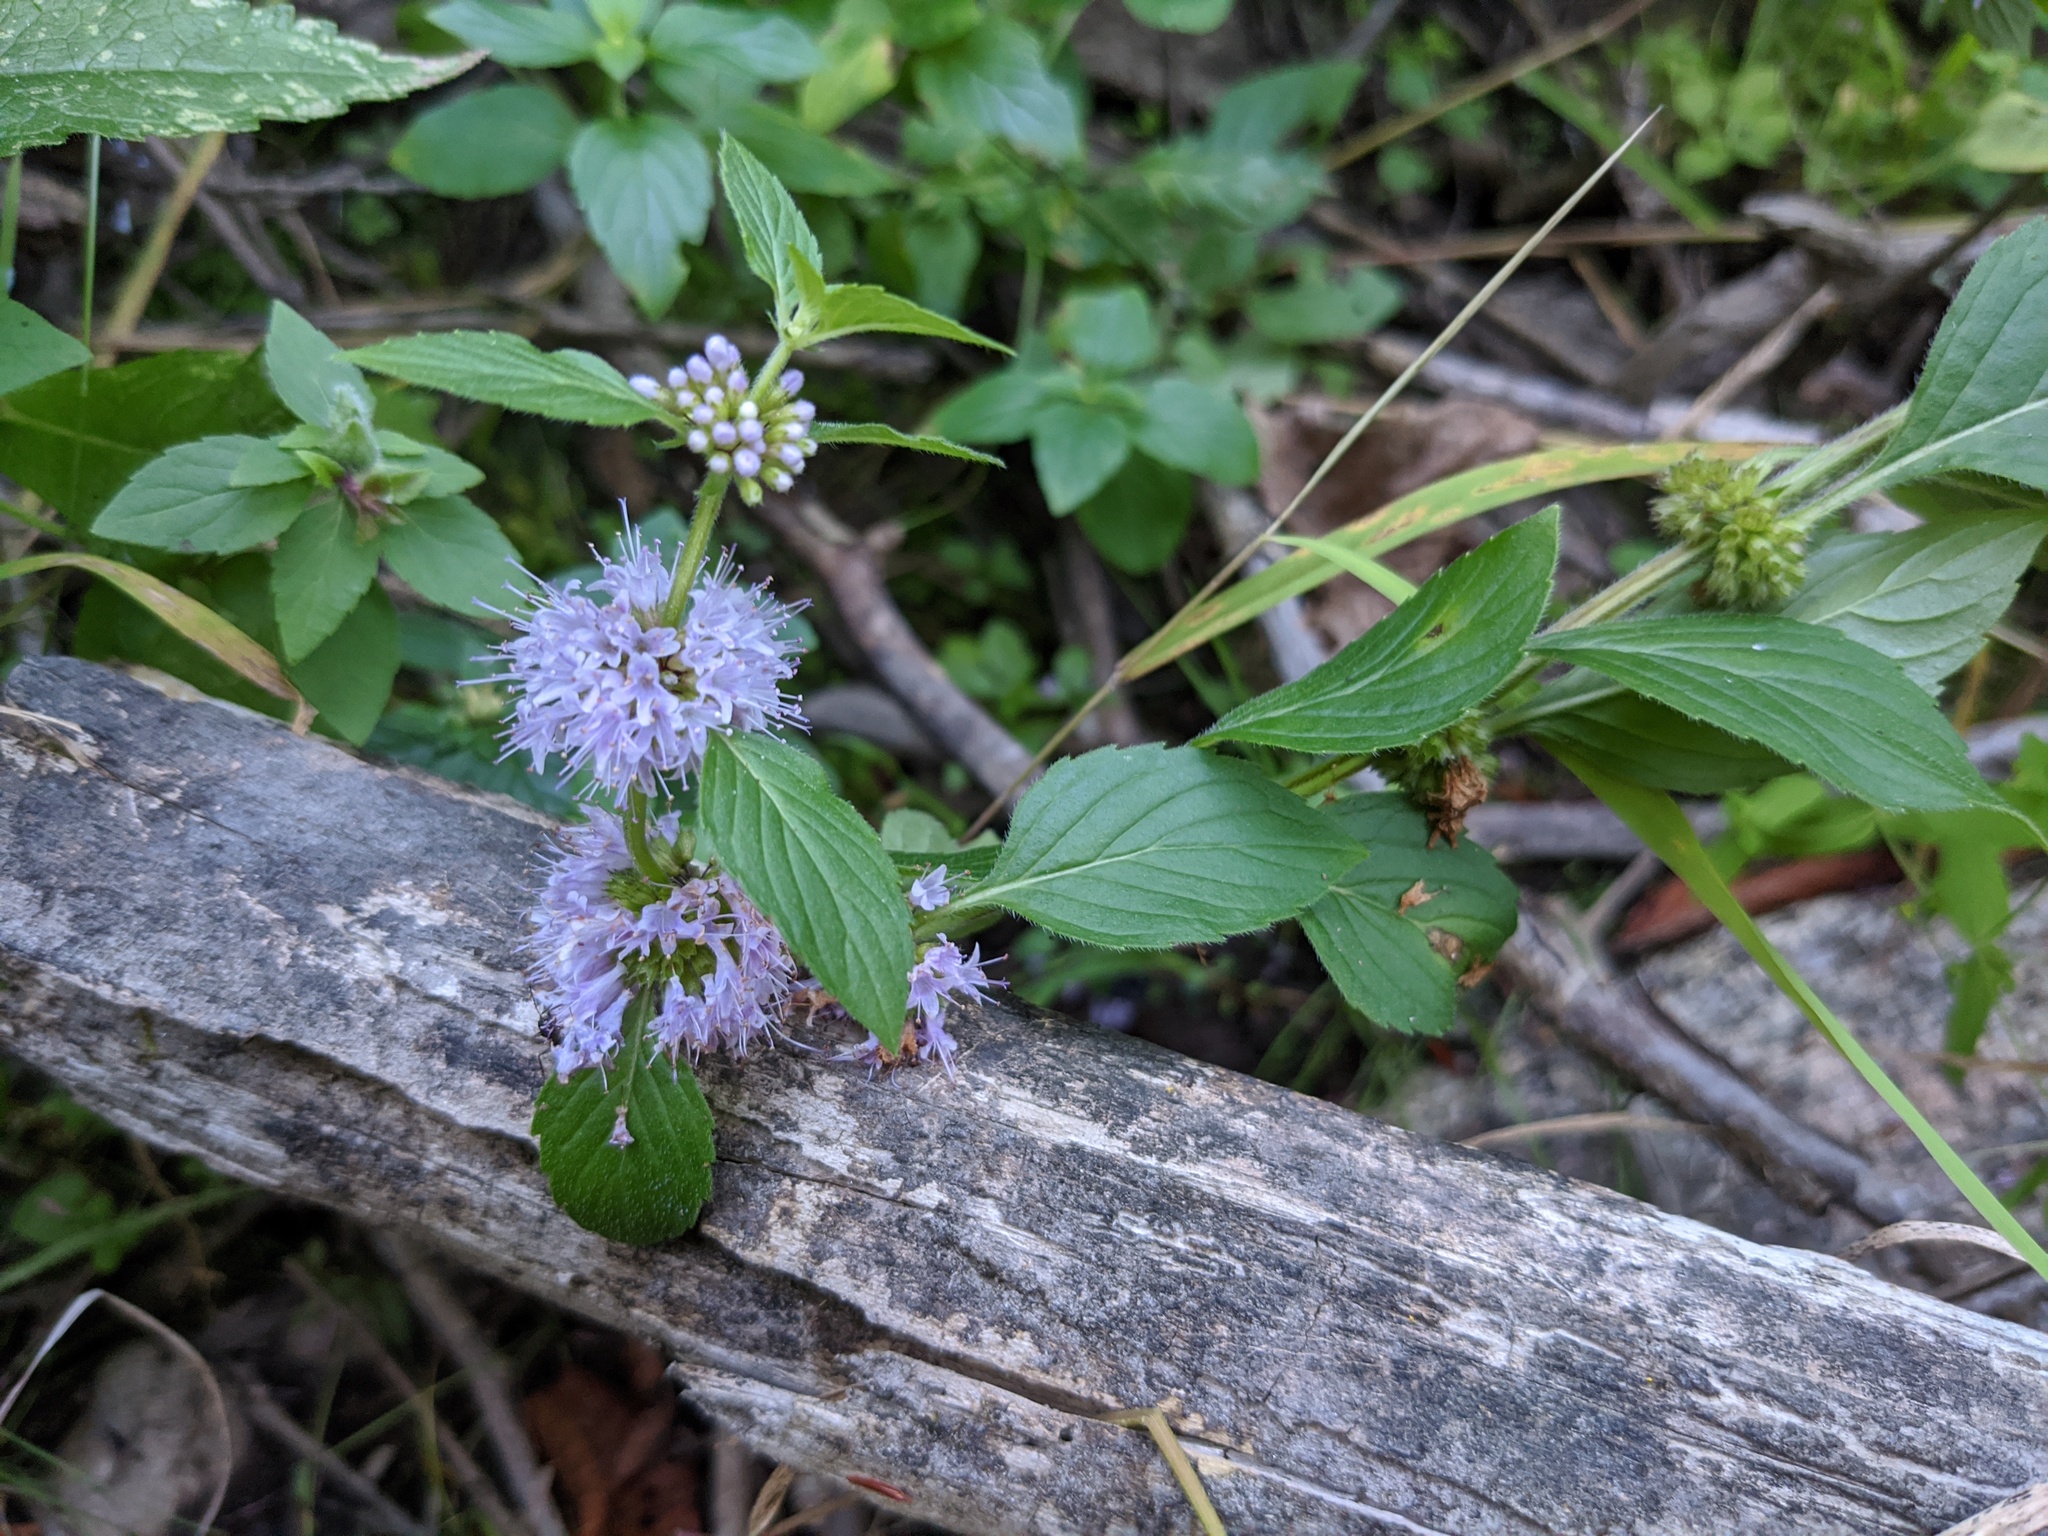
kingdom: Plantae
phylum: Tracheophyta
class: Magnoliopsida
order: Lamiales
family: Lamiaceae
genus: Mentha
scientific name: Mentha canadensis
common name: American corn mint
